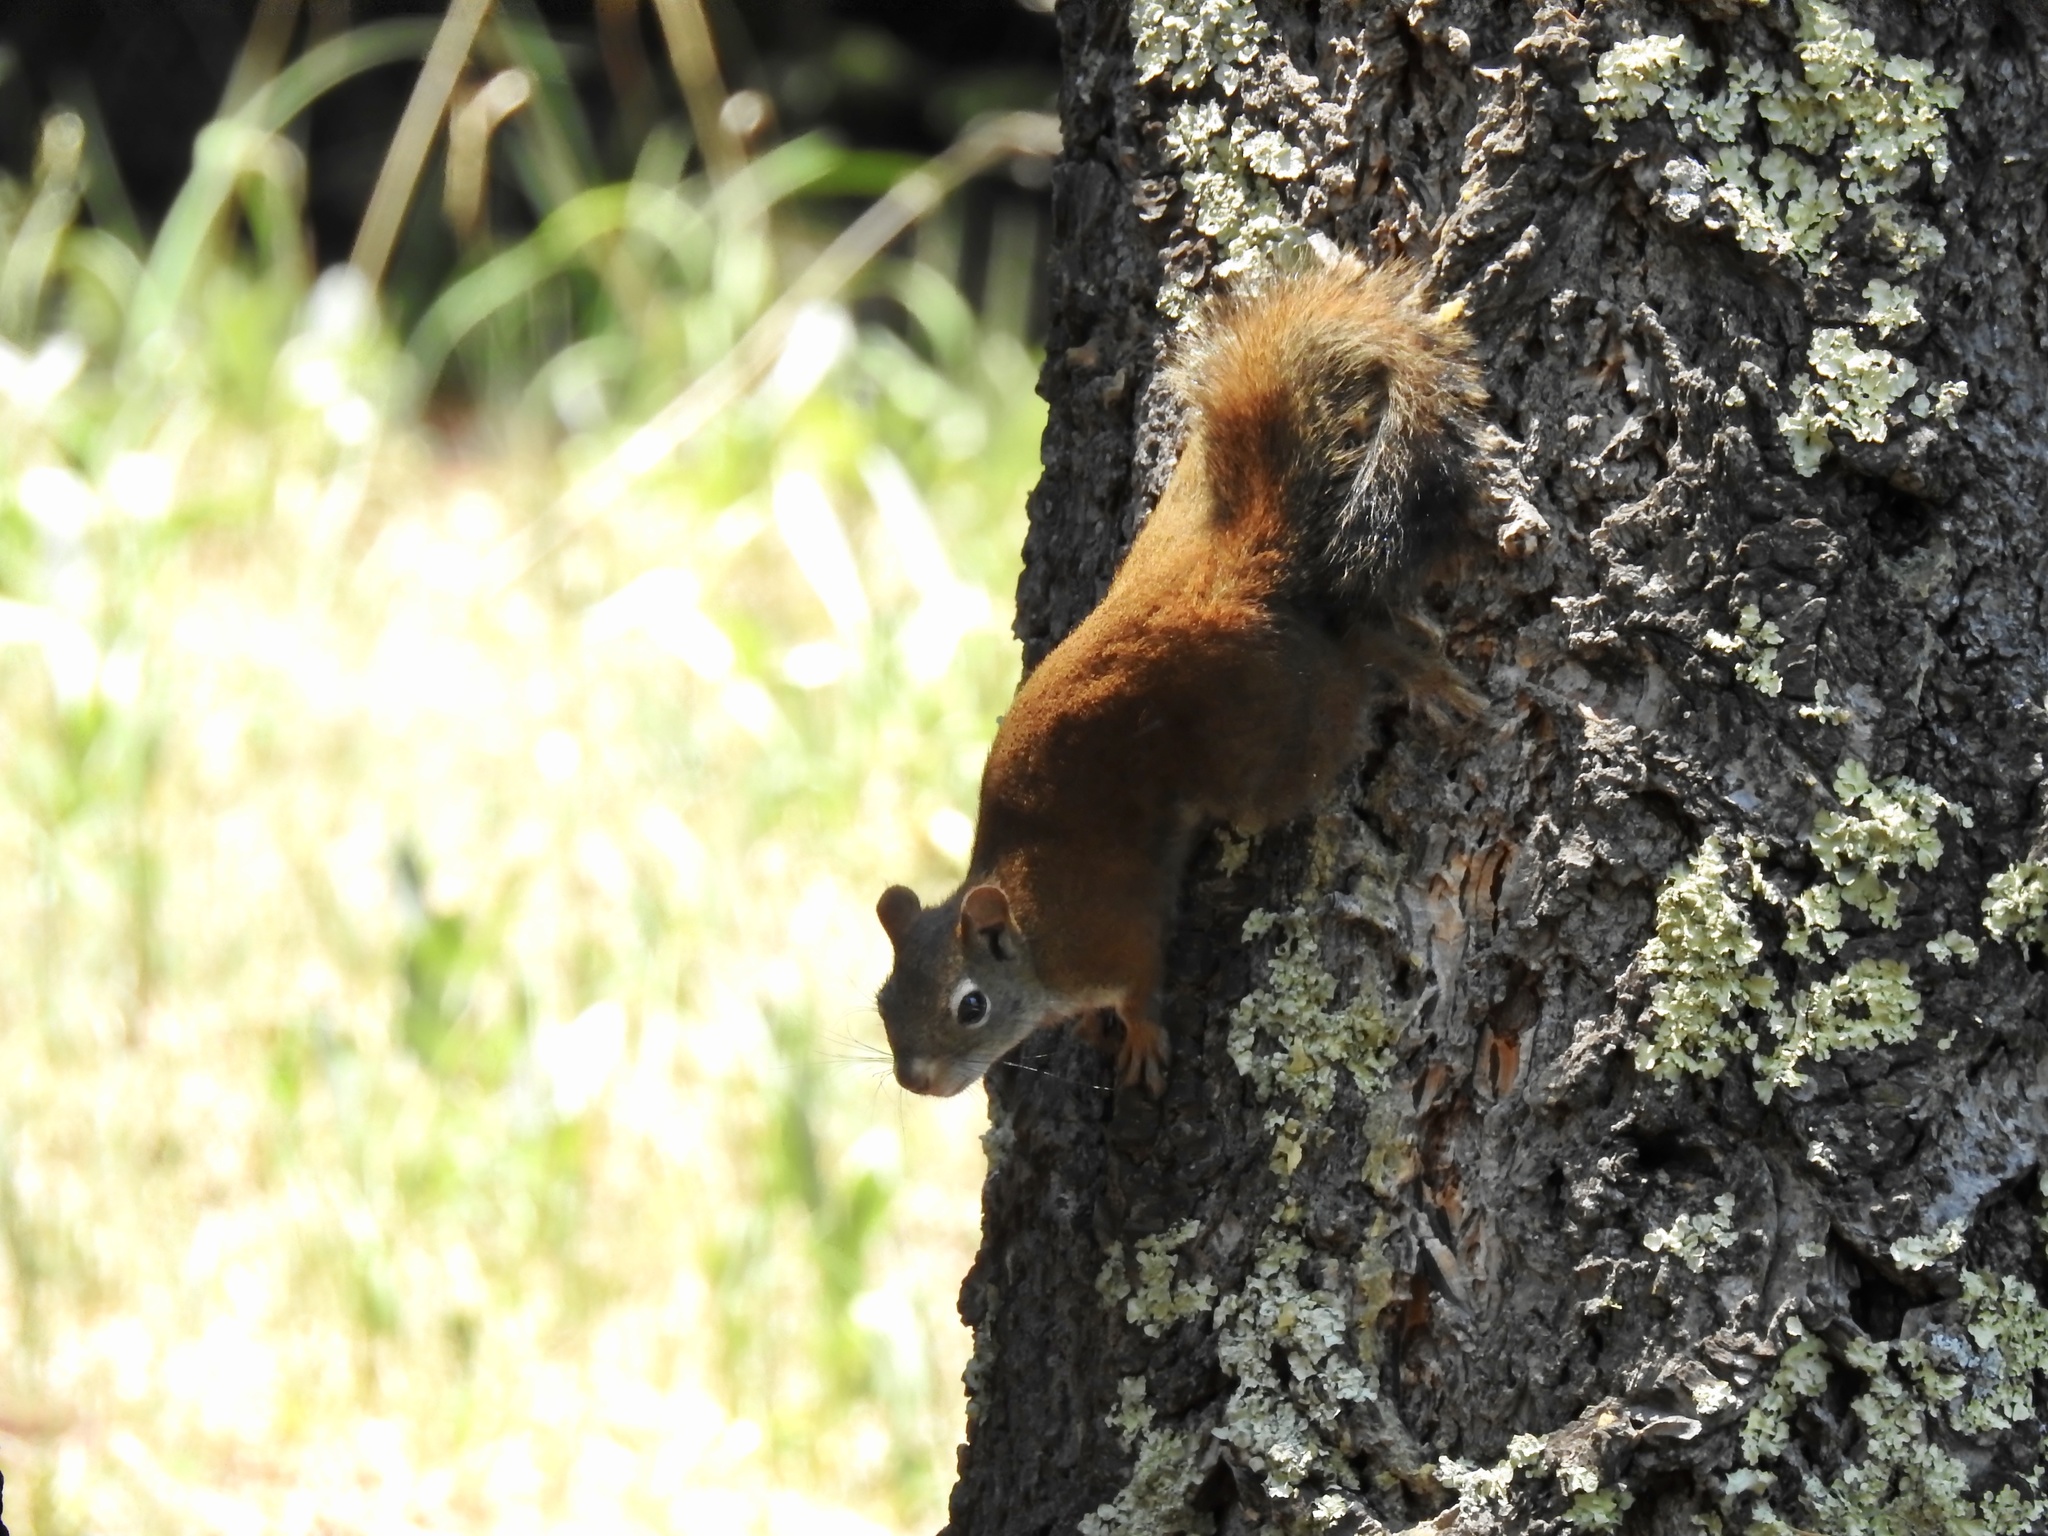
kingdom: Animalia
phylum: Chordata
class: Mammalia
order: Rodentia
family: Sciuridae
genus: Tamiasciurus
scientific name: Tamiasciurus hudsonicus
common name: Red squirrel
